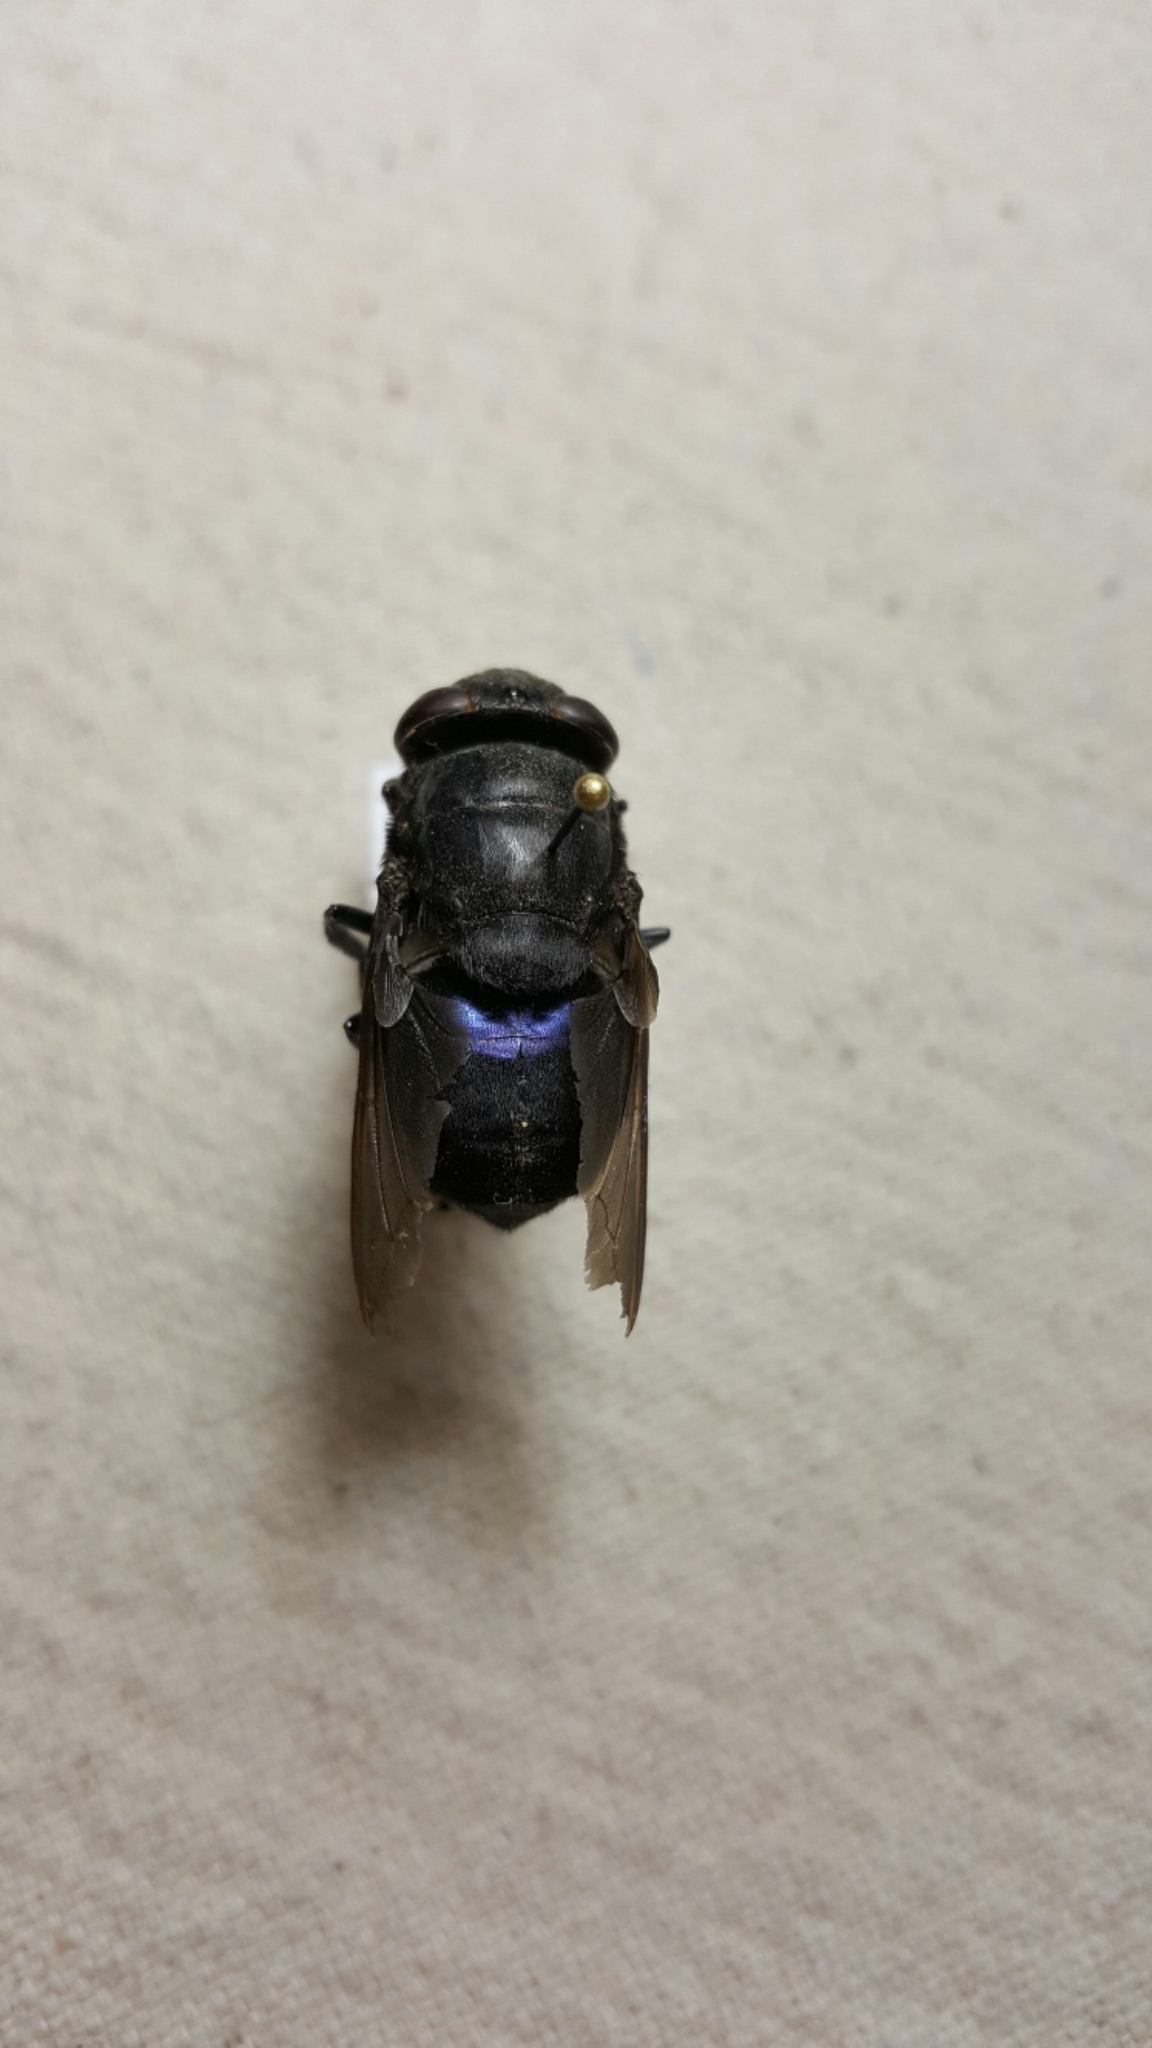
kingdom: Animalia
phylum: Arthropoda
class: Insecta
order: Diptera
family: Oestridae
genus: Cuterebra
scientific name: Cuterebra approximata
